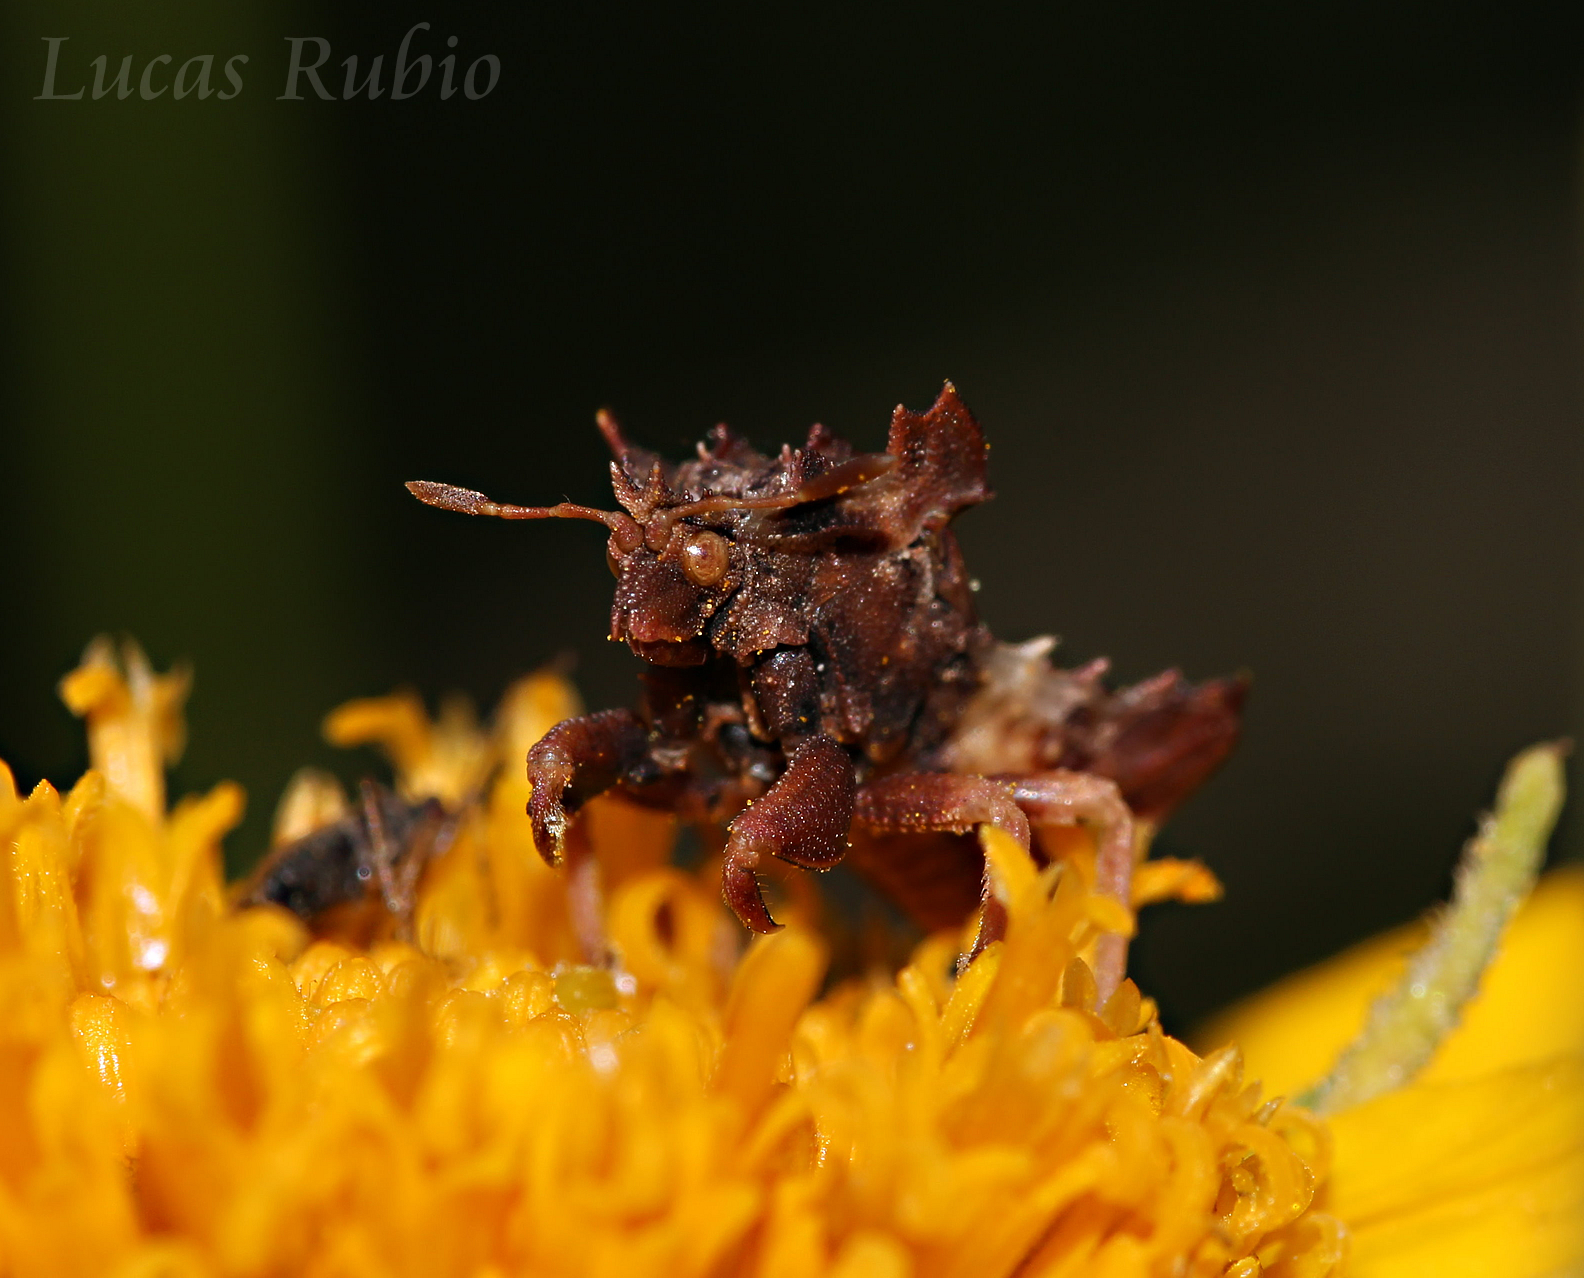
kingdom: Animalia
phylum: Arthropoda
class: Insecta
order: Hemiptera
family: Reduviidae
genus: Phymata
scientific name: Phymata fortificata
